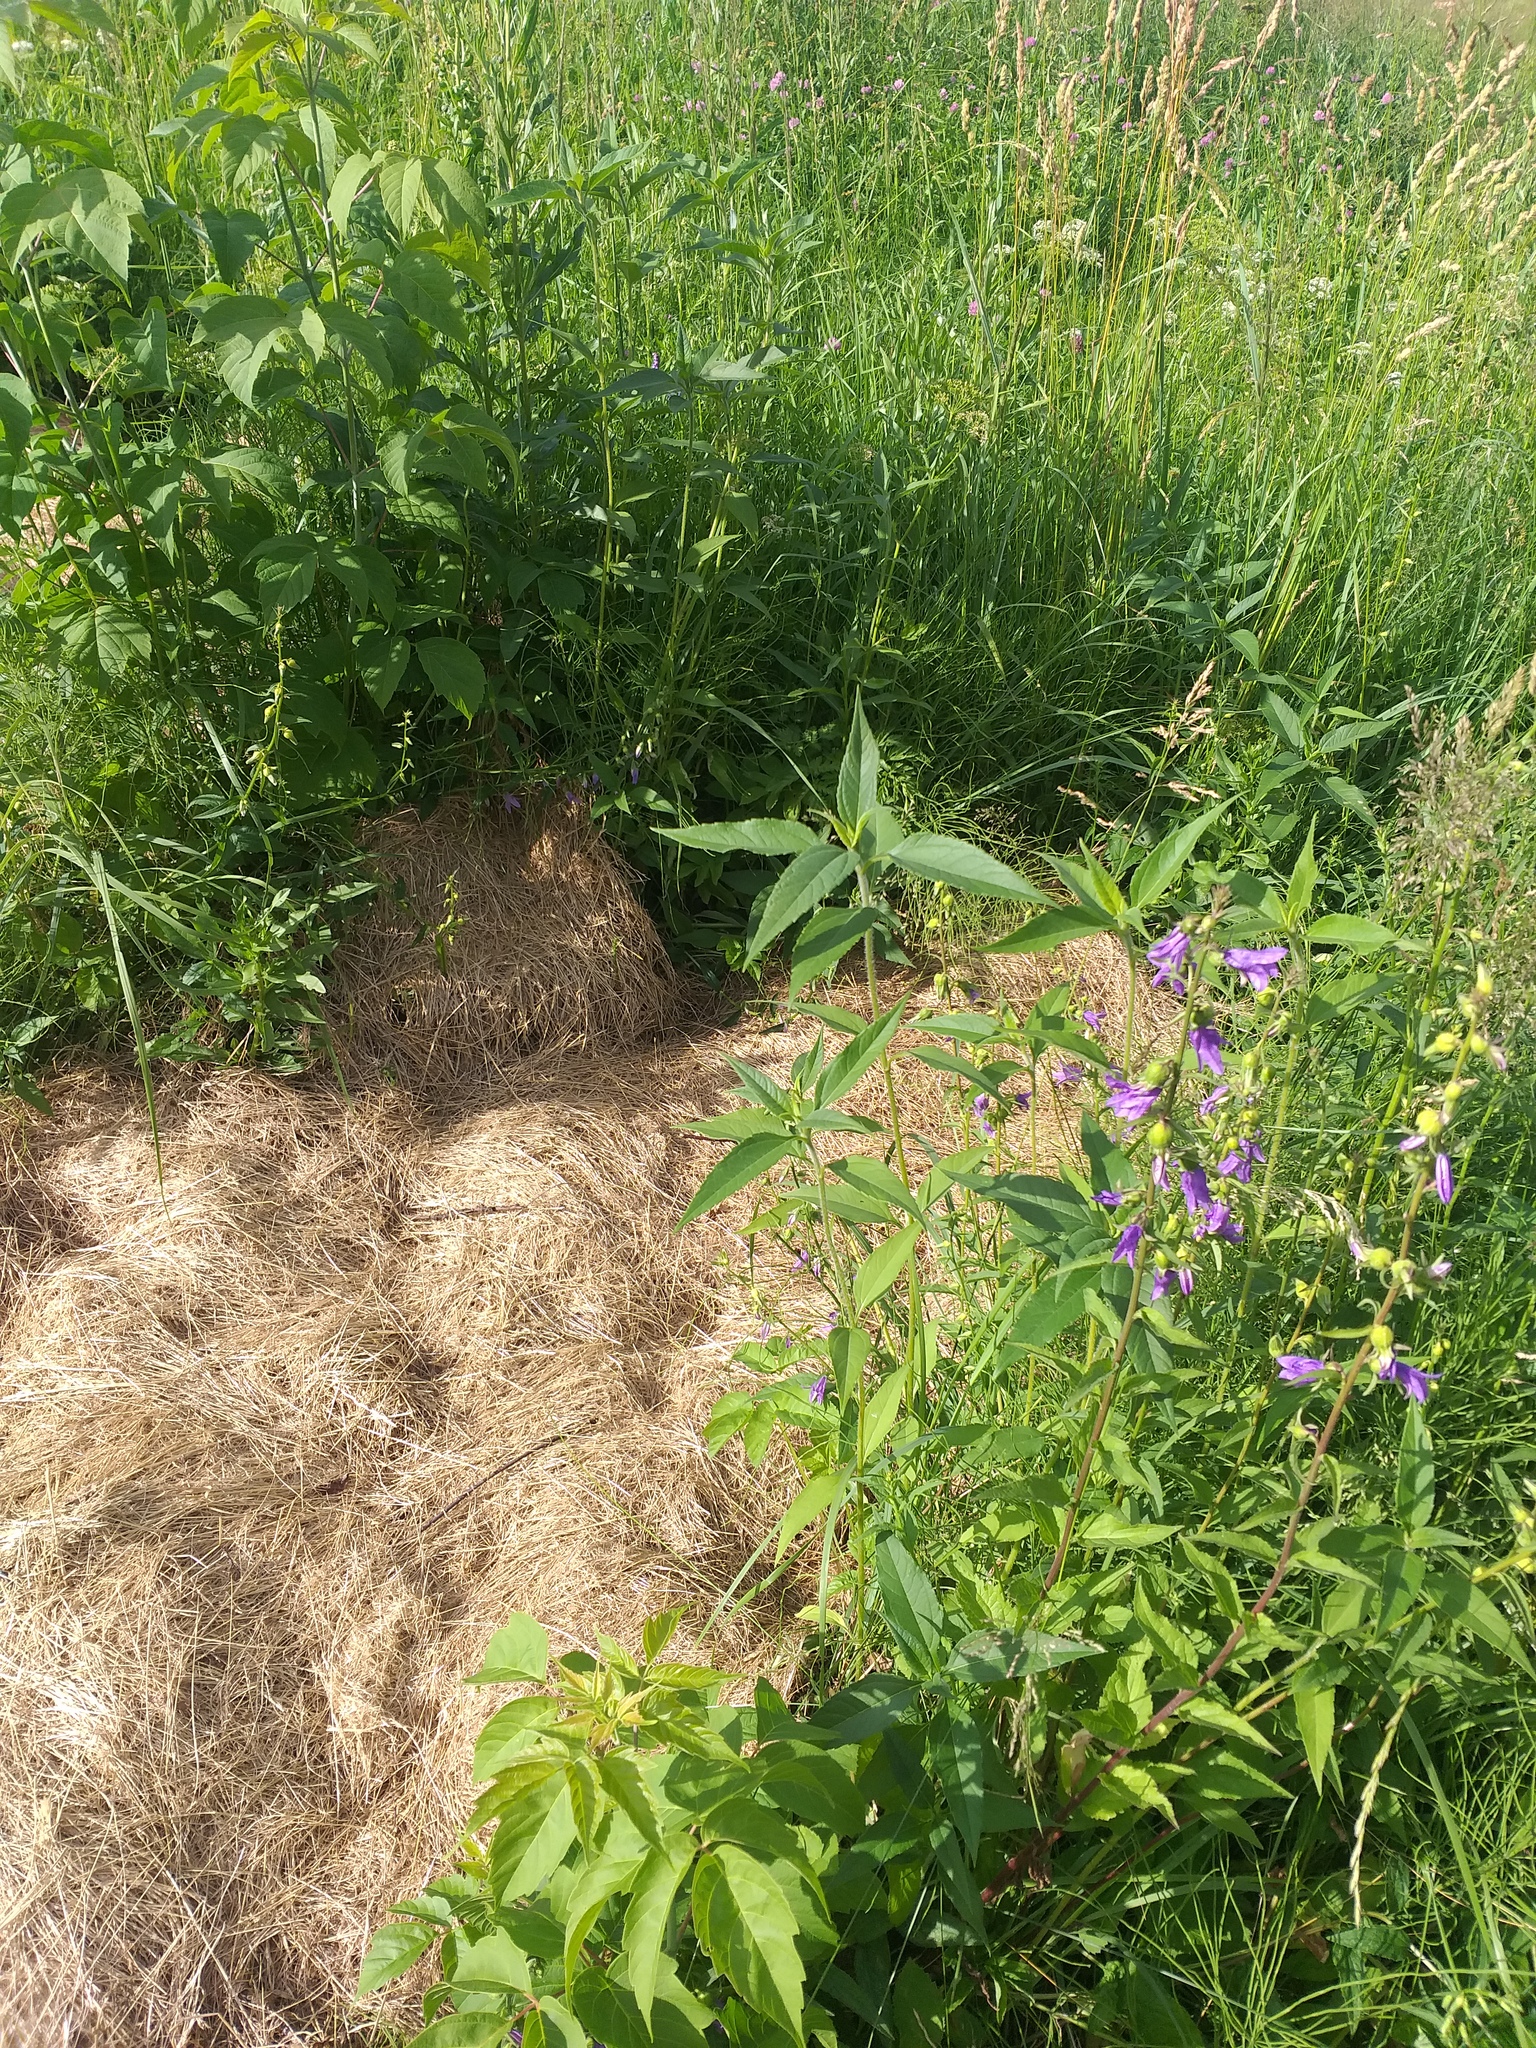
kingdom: Plantae
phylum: Tracheophyta
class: Magnoliopsida
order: Asterales
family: Asteraceae
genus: Helianthus
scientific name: Helianthus tuberosus
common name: Jerusalem artichoke
